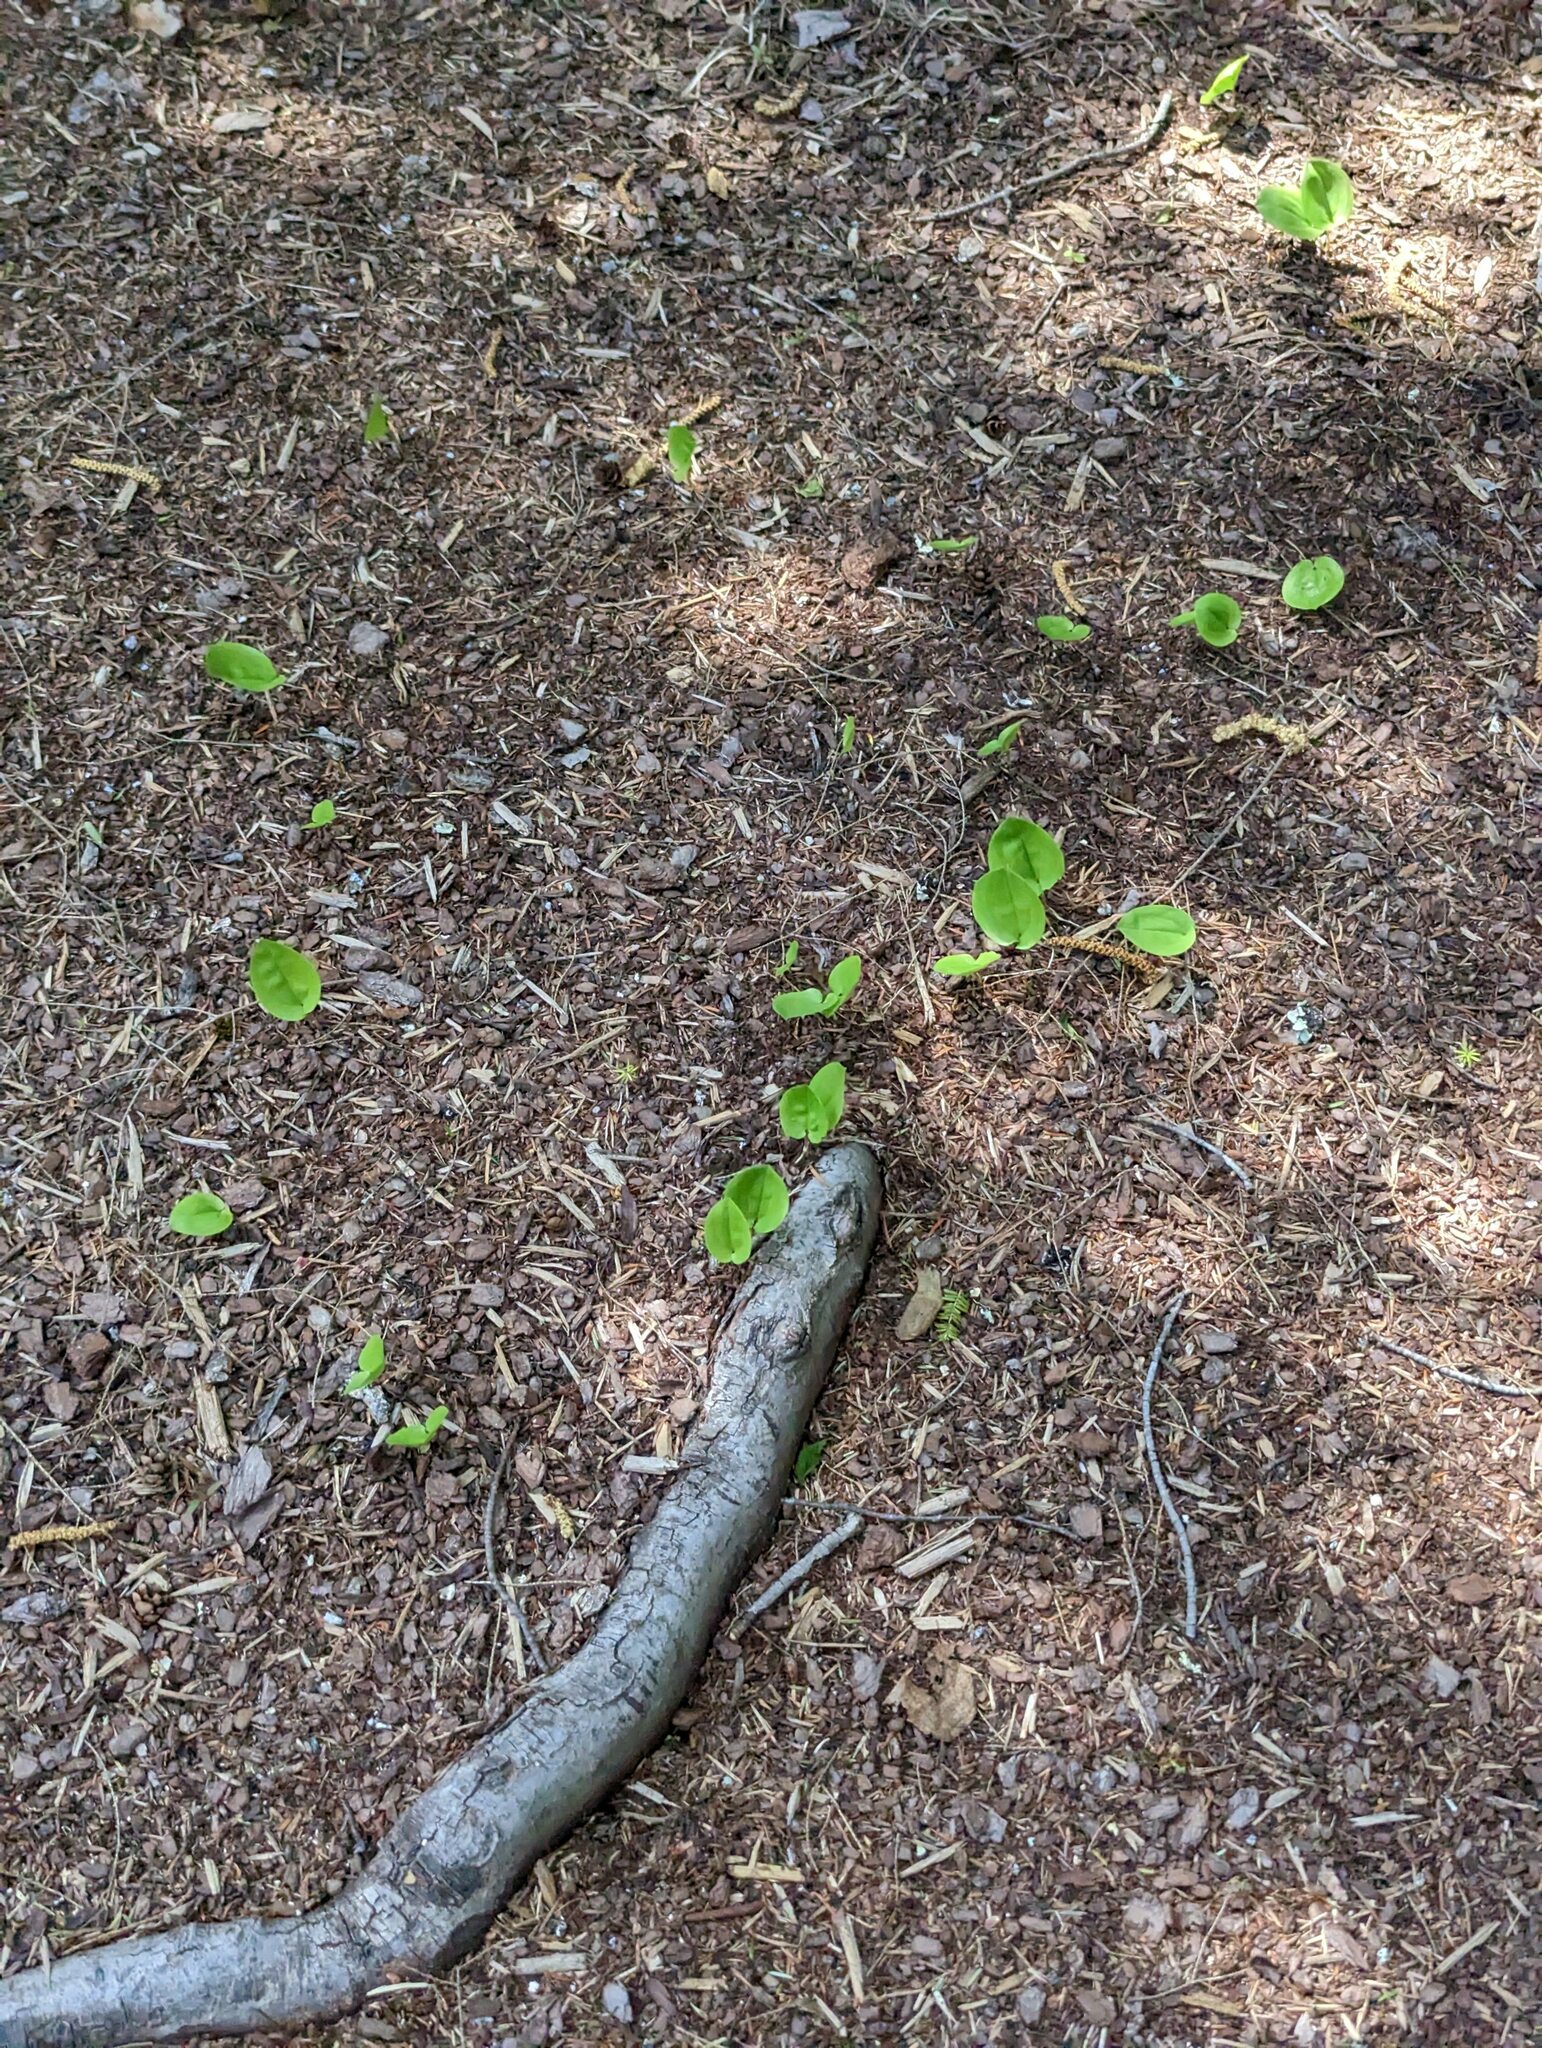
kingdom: Plantae
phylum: Tracheophyta
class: Liliopsida
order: Asparagales
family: Asparagaceae
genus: Maianthemum
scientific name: Maianthemum canadense
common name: False lily-of-the-valley
